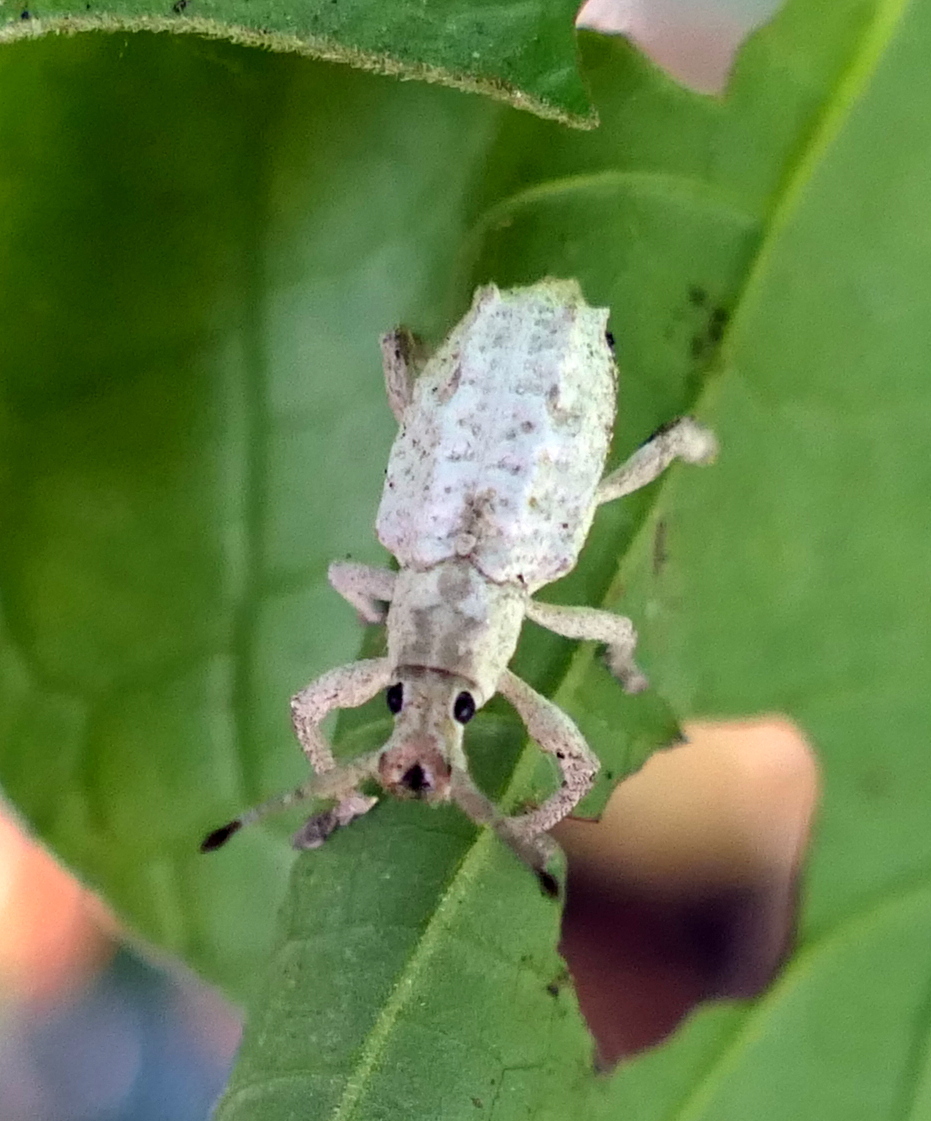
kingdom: Animalia
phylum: Arthropoda
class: Insecta
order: Coleoptera
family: Curculionidae
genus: Compsus
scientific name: Compsus niveus
